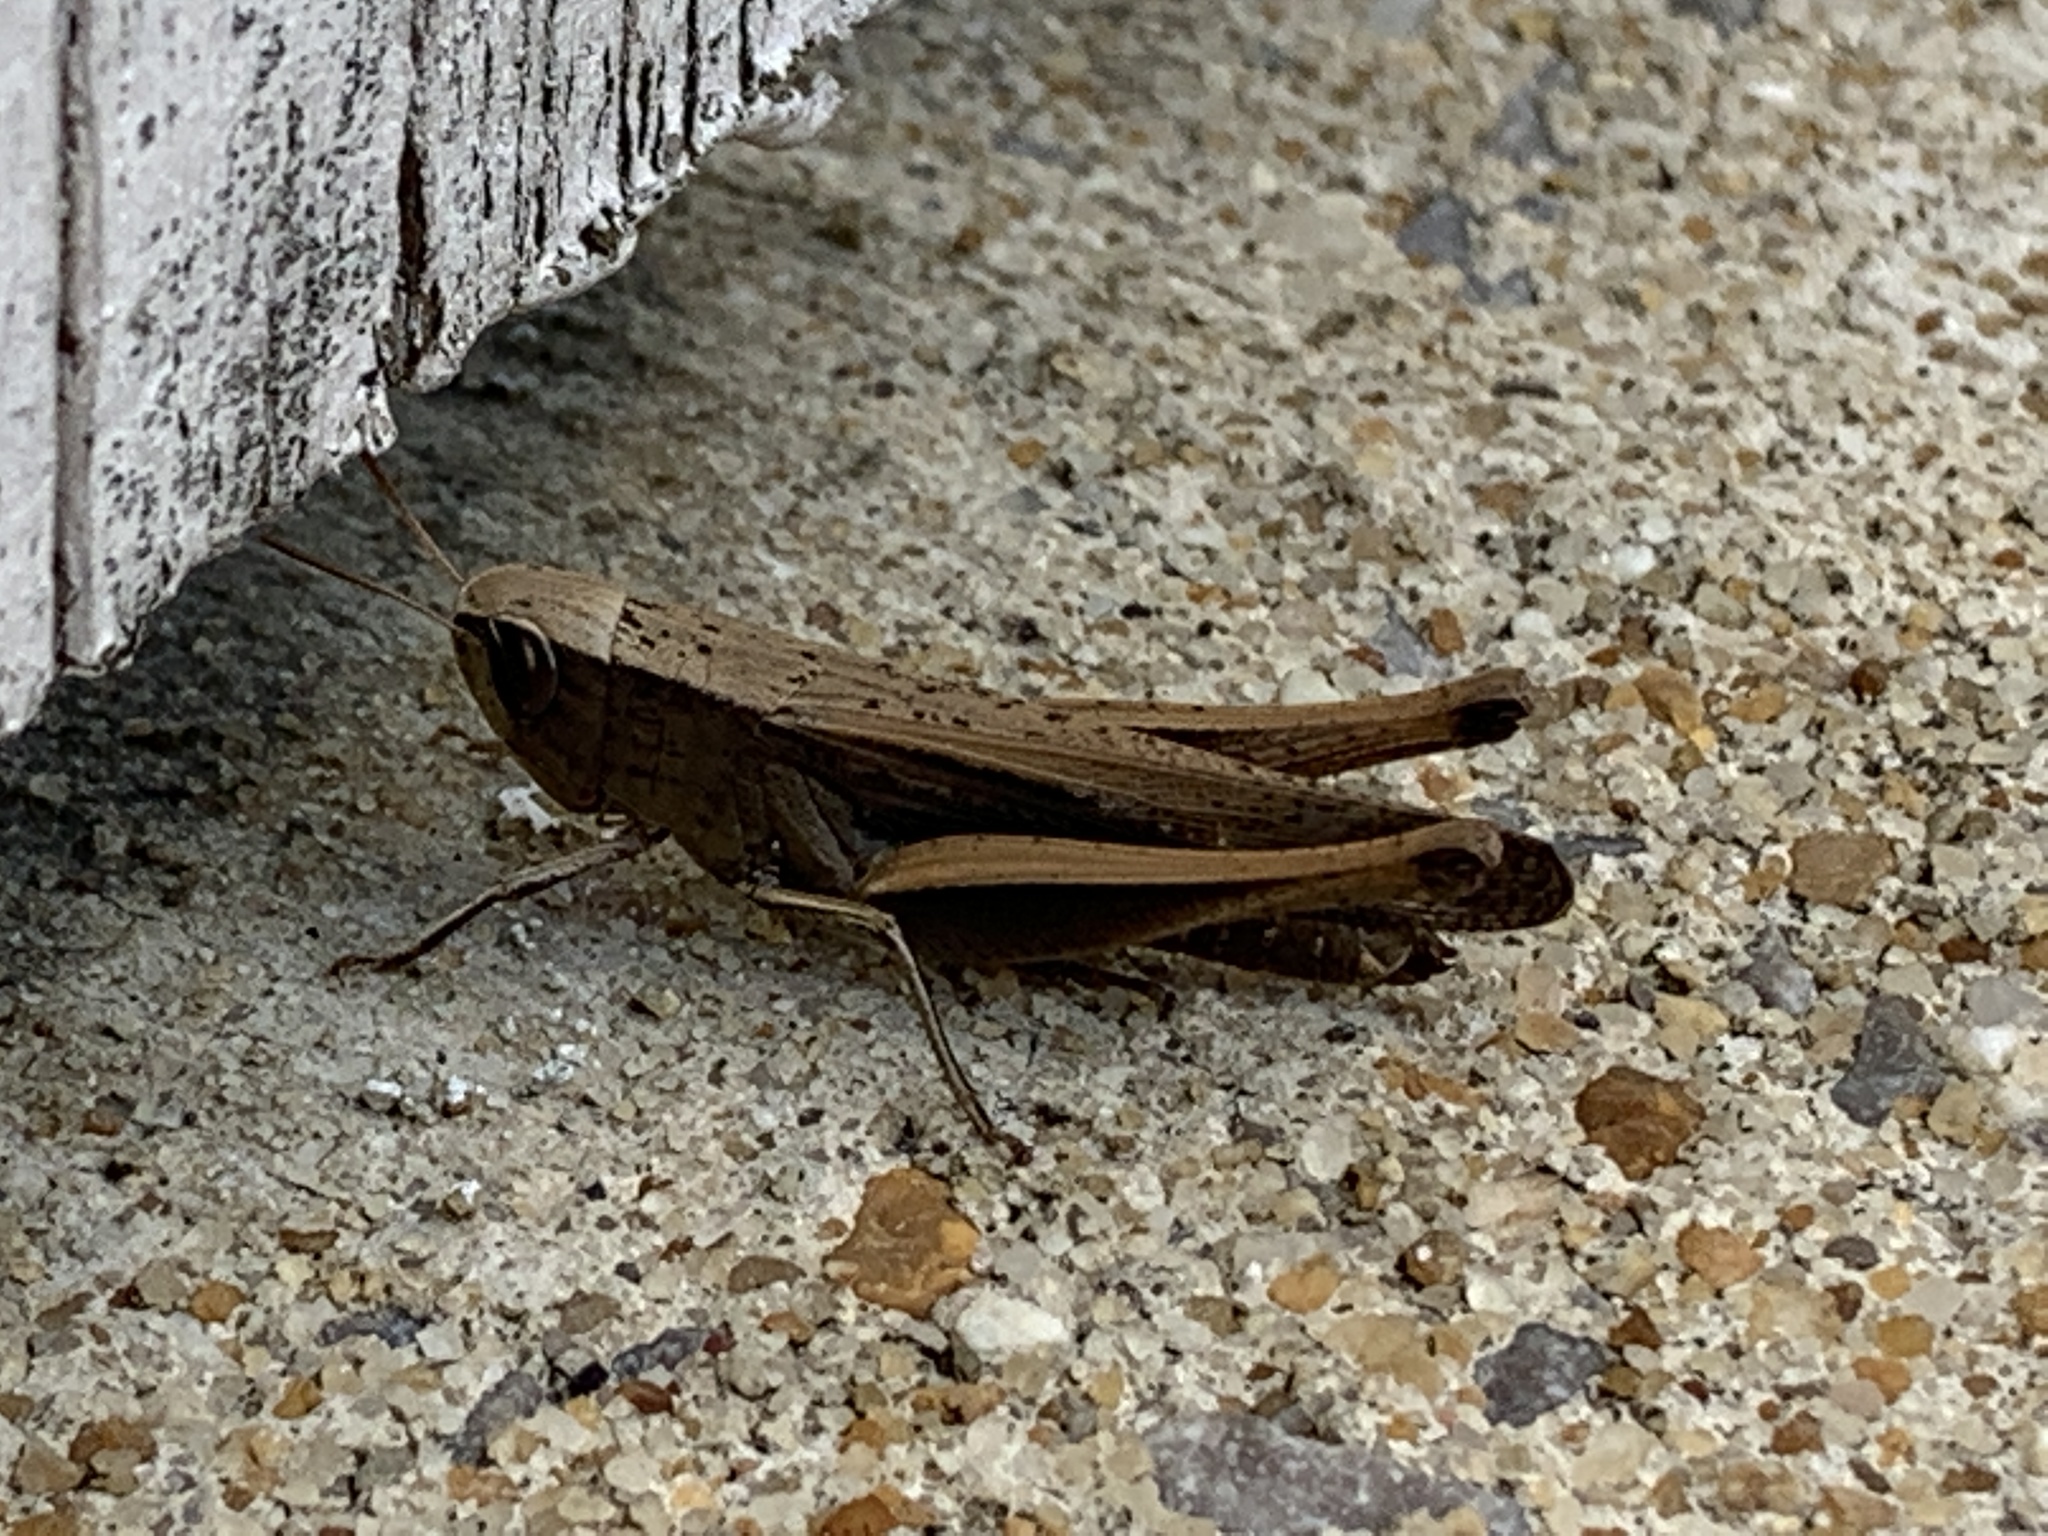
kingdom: Animalia
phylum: Arthropoda
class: Insecta
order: Orthoptera
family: Acrididae
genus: Amblytropidia
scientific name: Amblytropidia mysteca
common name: Brown winter grasshopper
